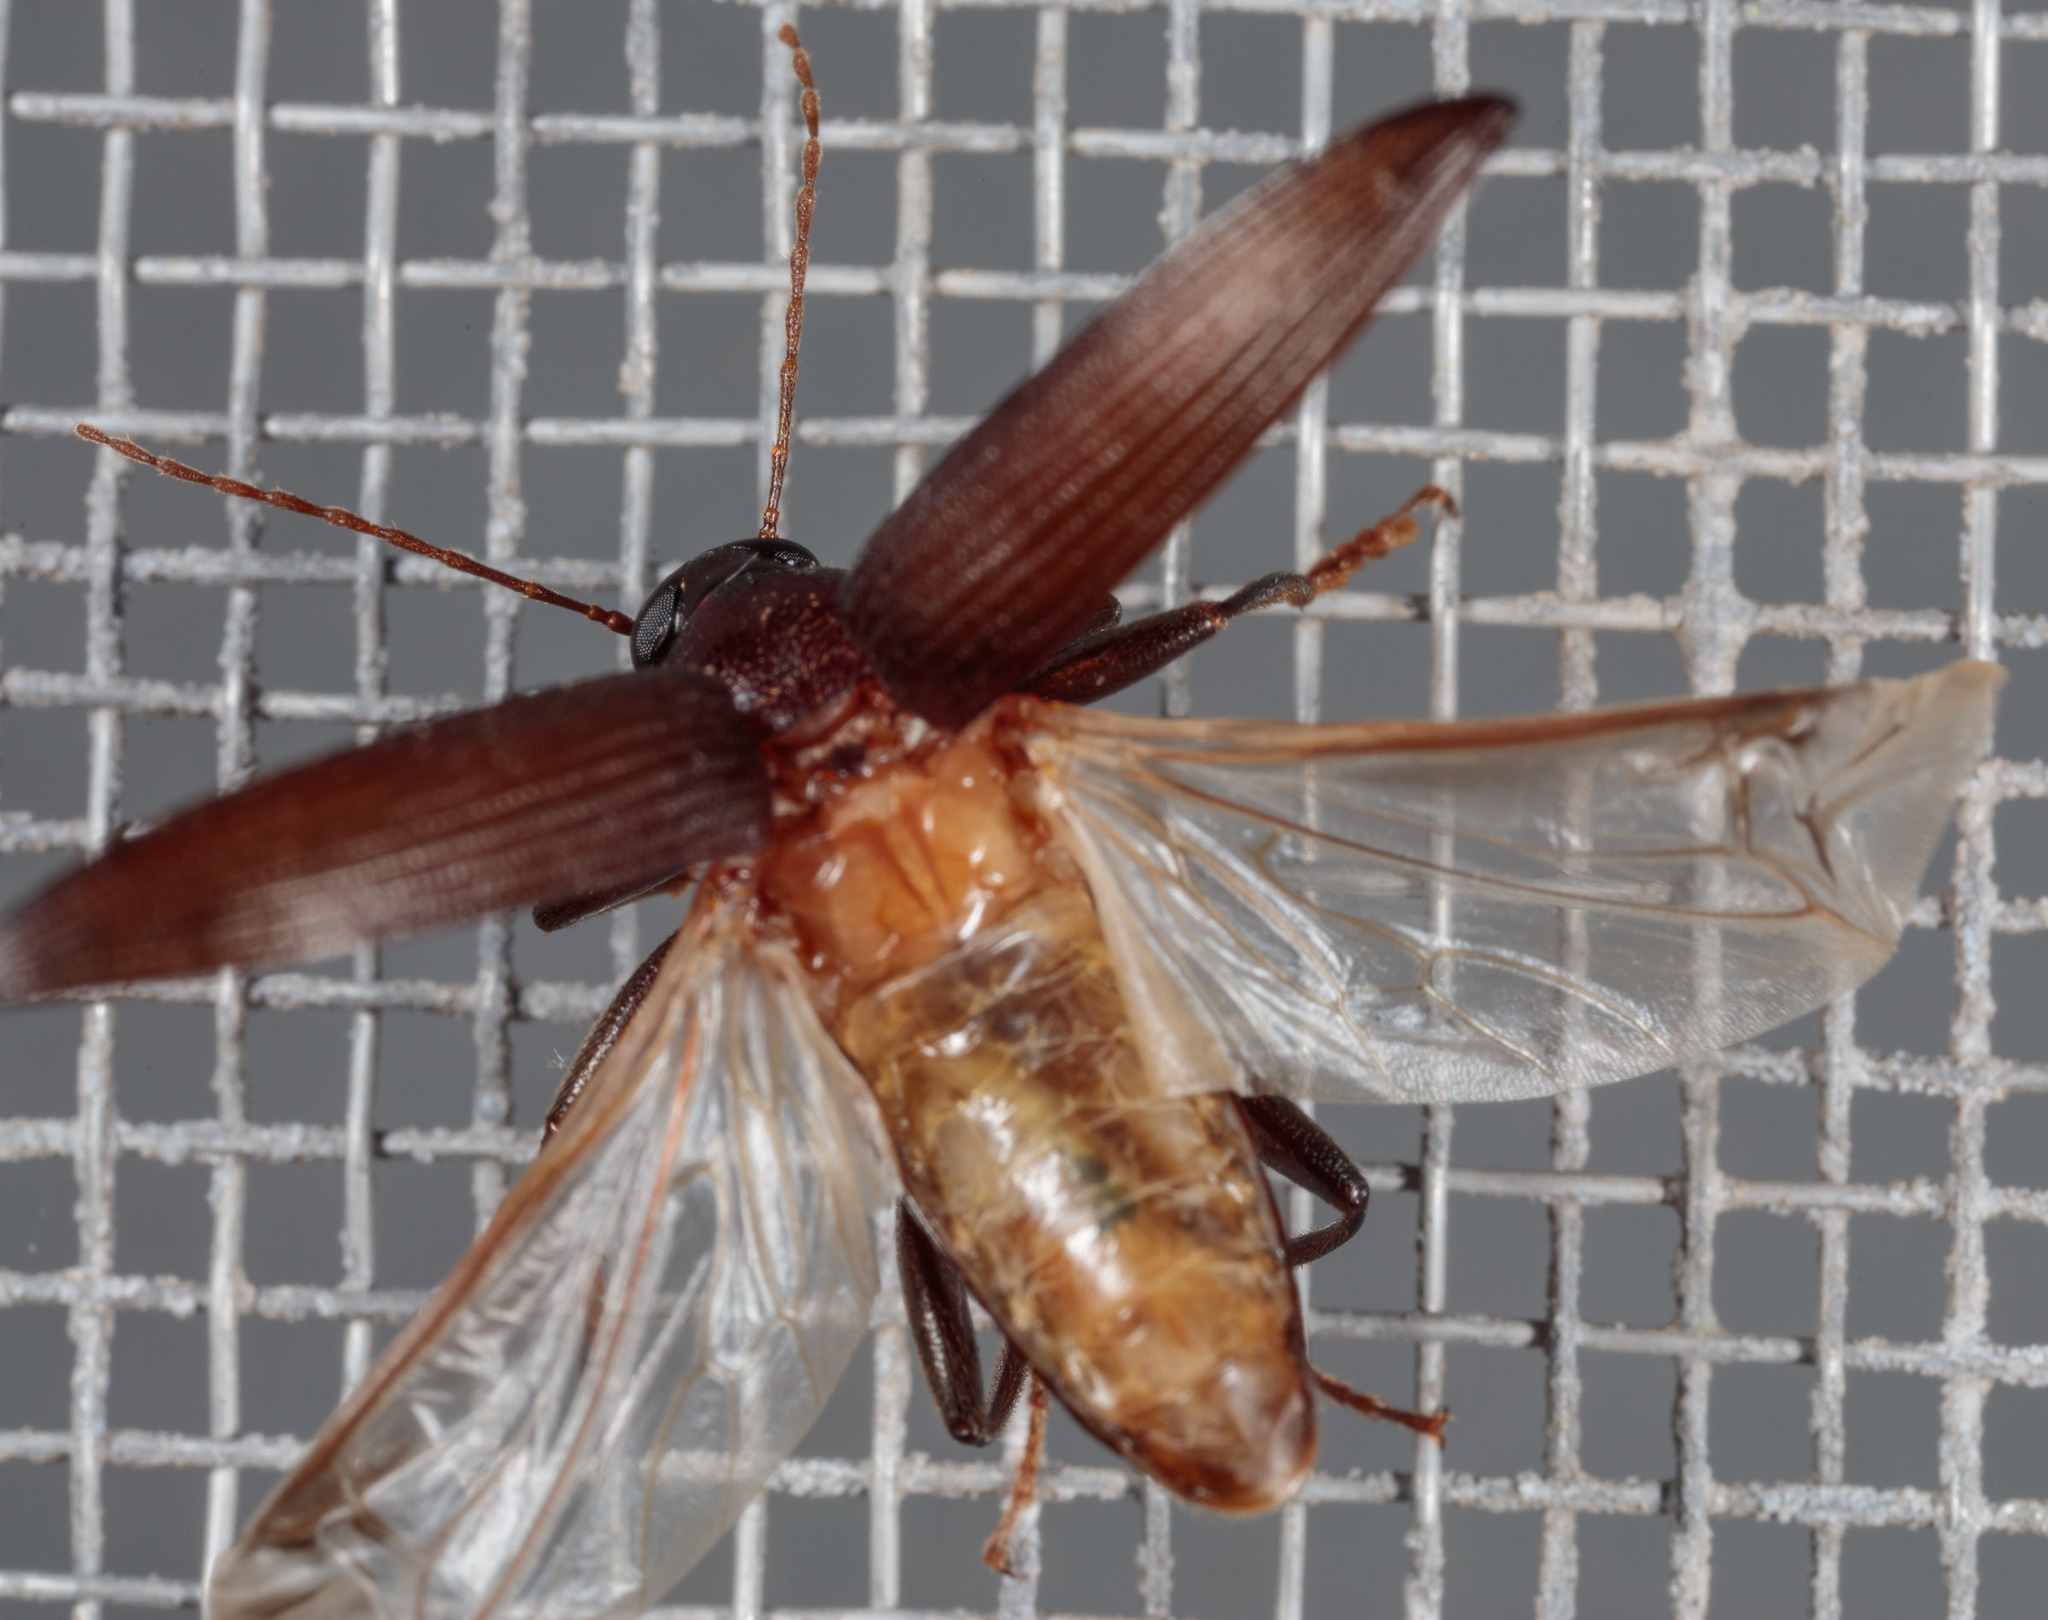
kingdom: Animalia
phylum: Arthropoda
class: Insecta
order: Coleoptera
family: Elateridae
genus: Selonodon
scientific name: Selonodon
